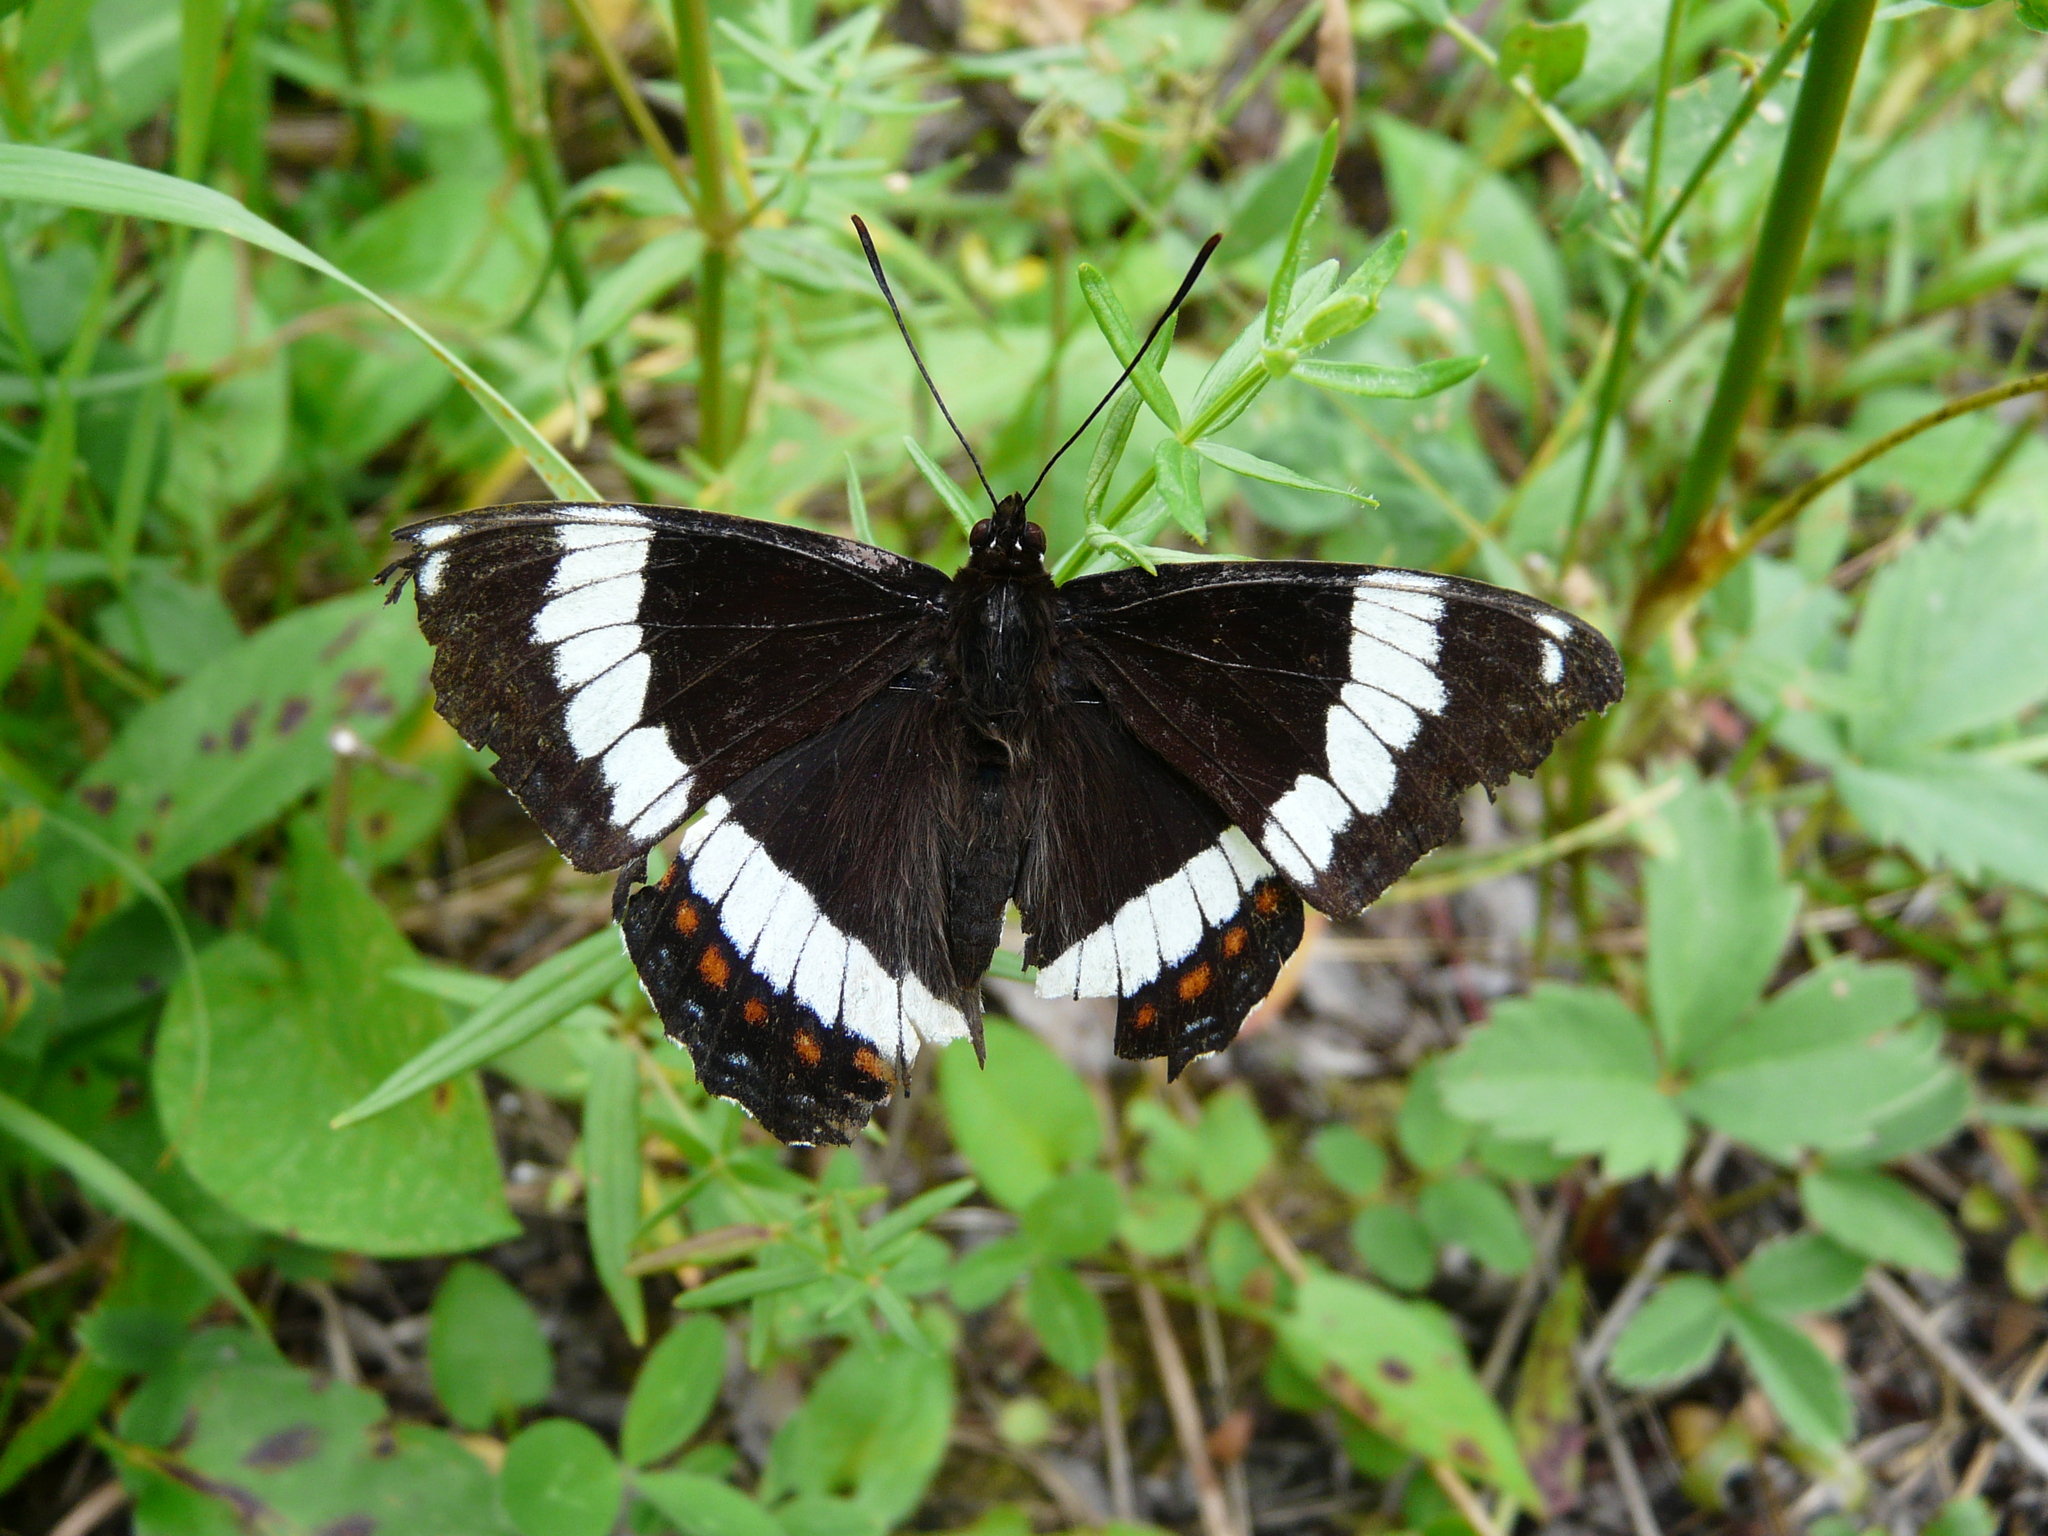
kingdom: Animalia
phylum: Arthropoda
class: Insecta
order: Lepidoptera
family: Nymphalidae
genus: Limenitis
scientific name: Limenitis arthemis
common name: Red-spotted admiral
